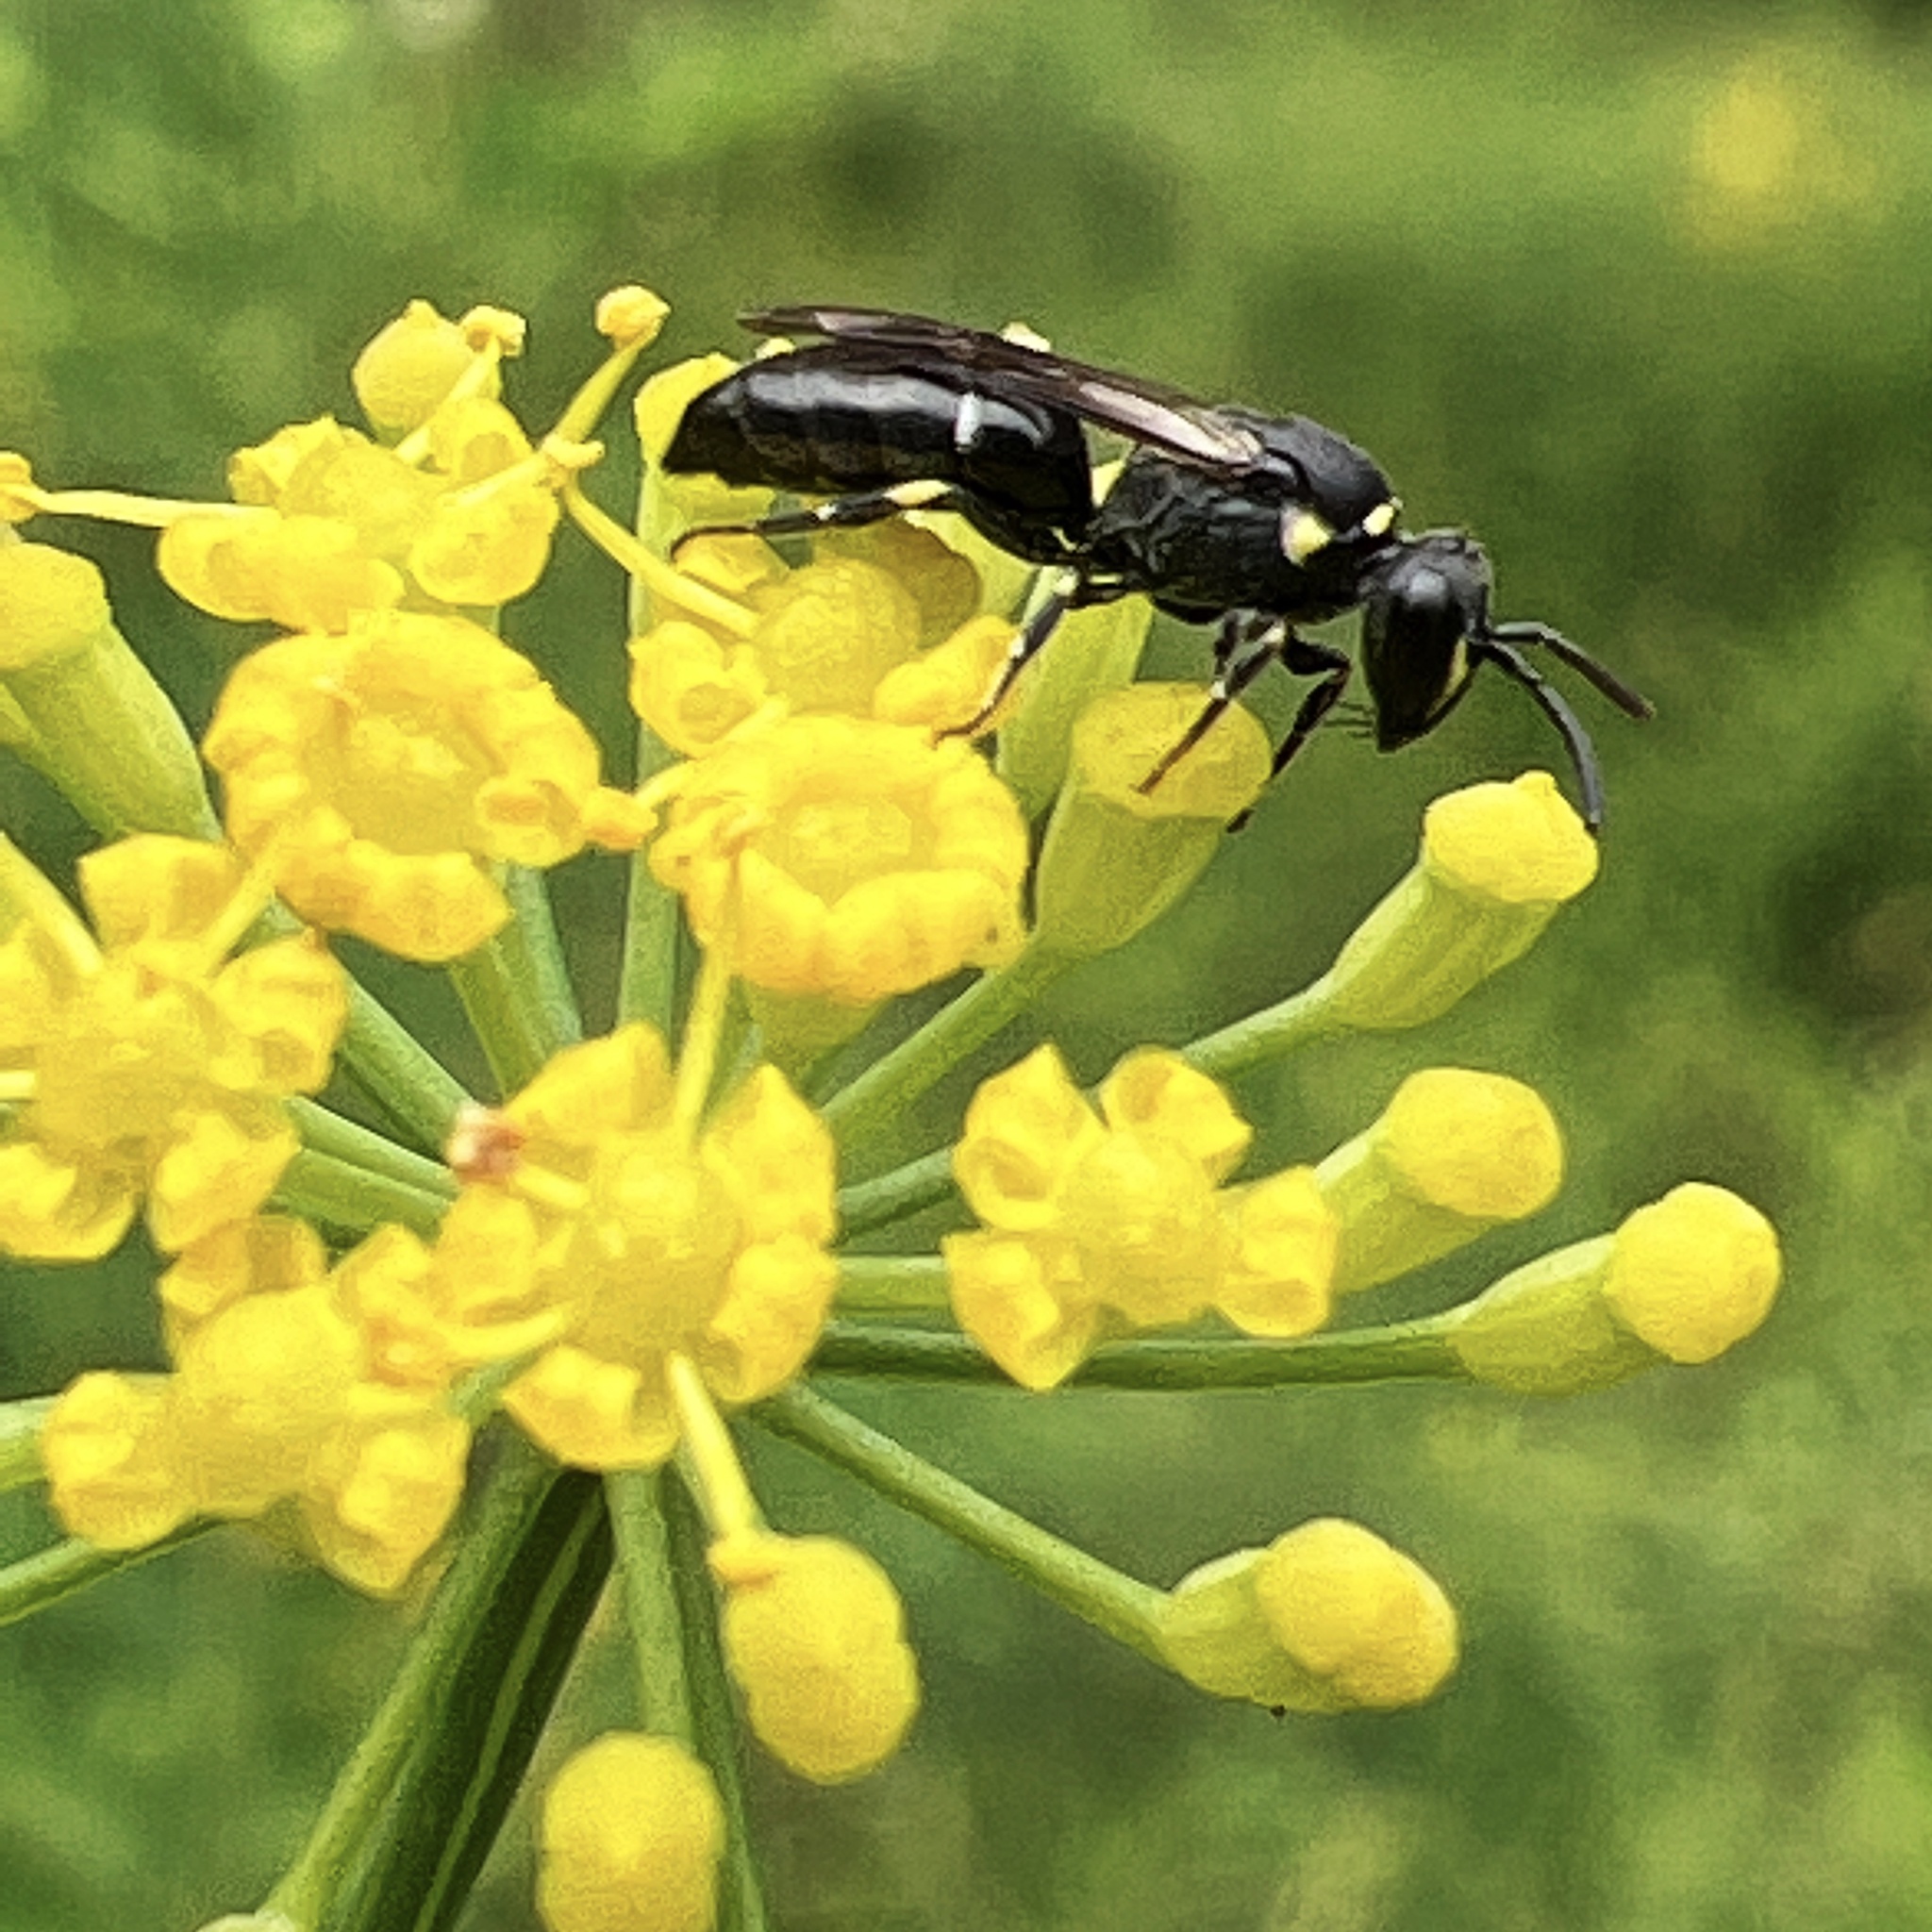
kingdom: Animalia
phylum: Arthropoda
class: Insecta
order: Hymenoptera
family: Colletidae
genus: Hylaeus
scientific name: Hylaeus modestus
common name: Yellow-faced bee
